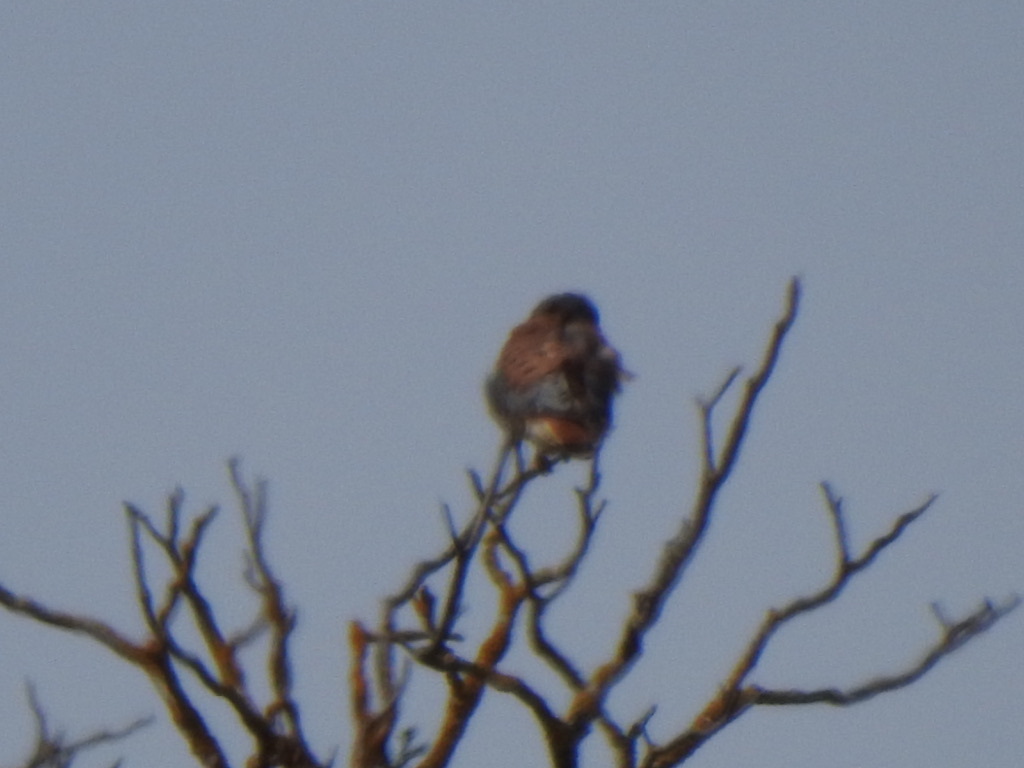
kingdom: Animalia
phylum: Chordata
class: Aves
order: Falconiformes
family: Falconidae
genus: Falco
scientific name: Falco sparverius
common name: American kestrel
